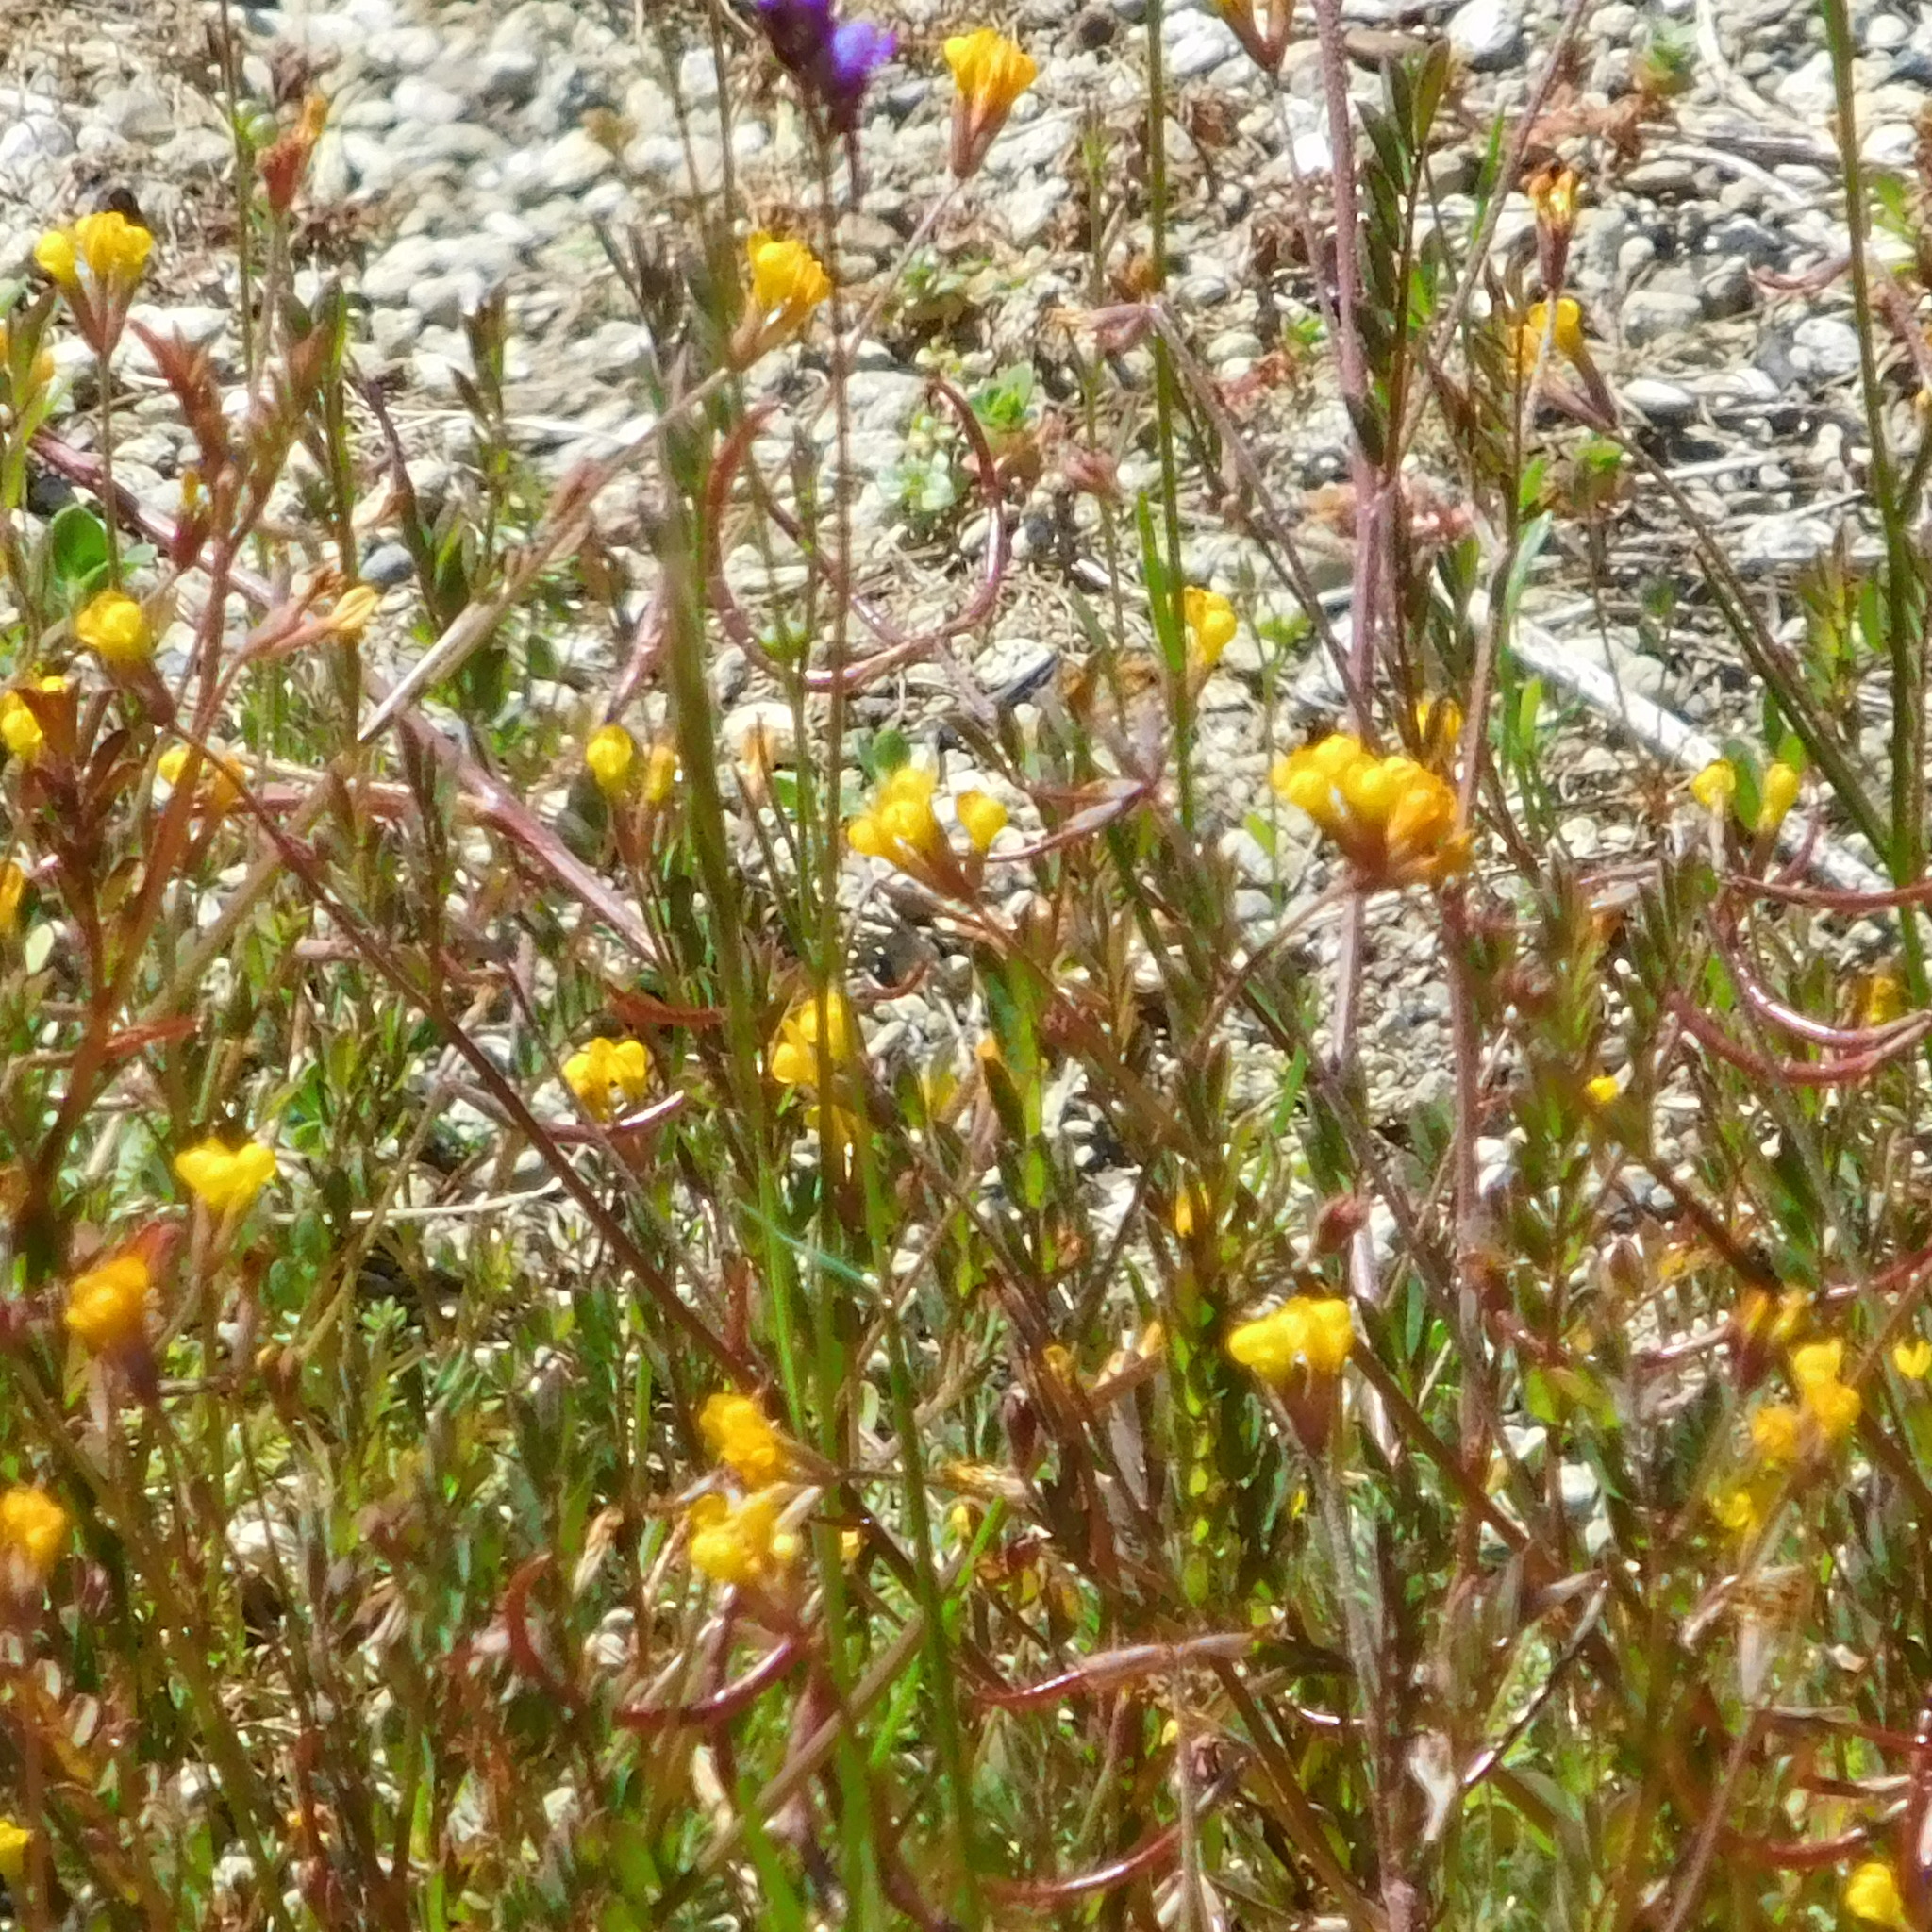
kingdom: Plantae
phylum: Tracheophyta
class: Magnoliopsida
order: Fabales
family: Fabaceae
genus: Ornithopus
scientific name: Ornithopus pinnatus
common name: Orange bird's-foot
